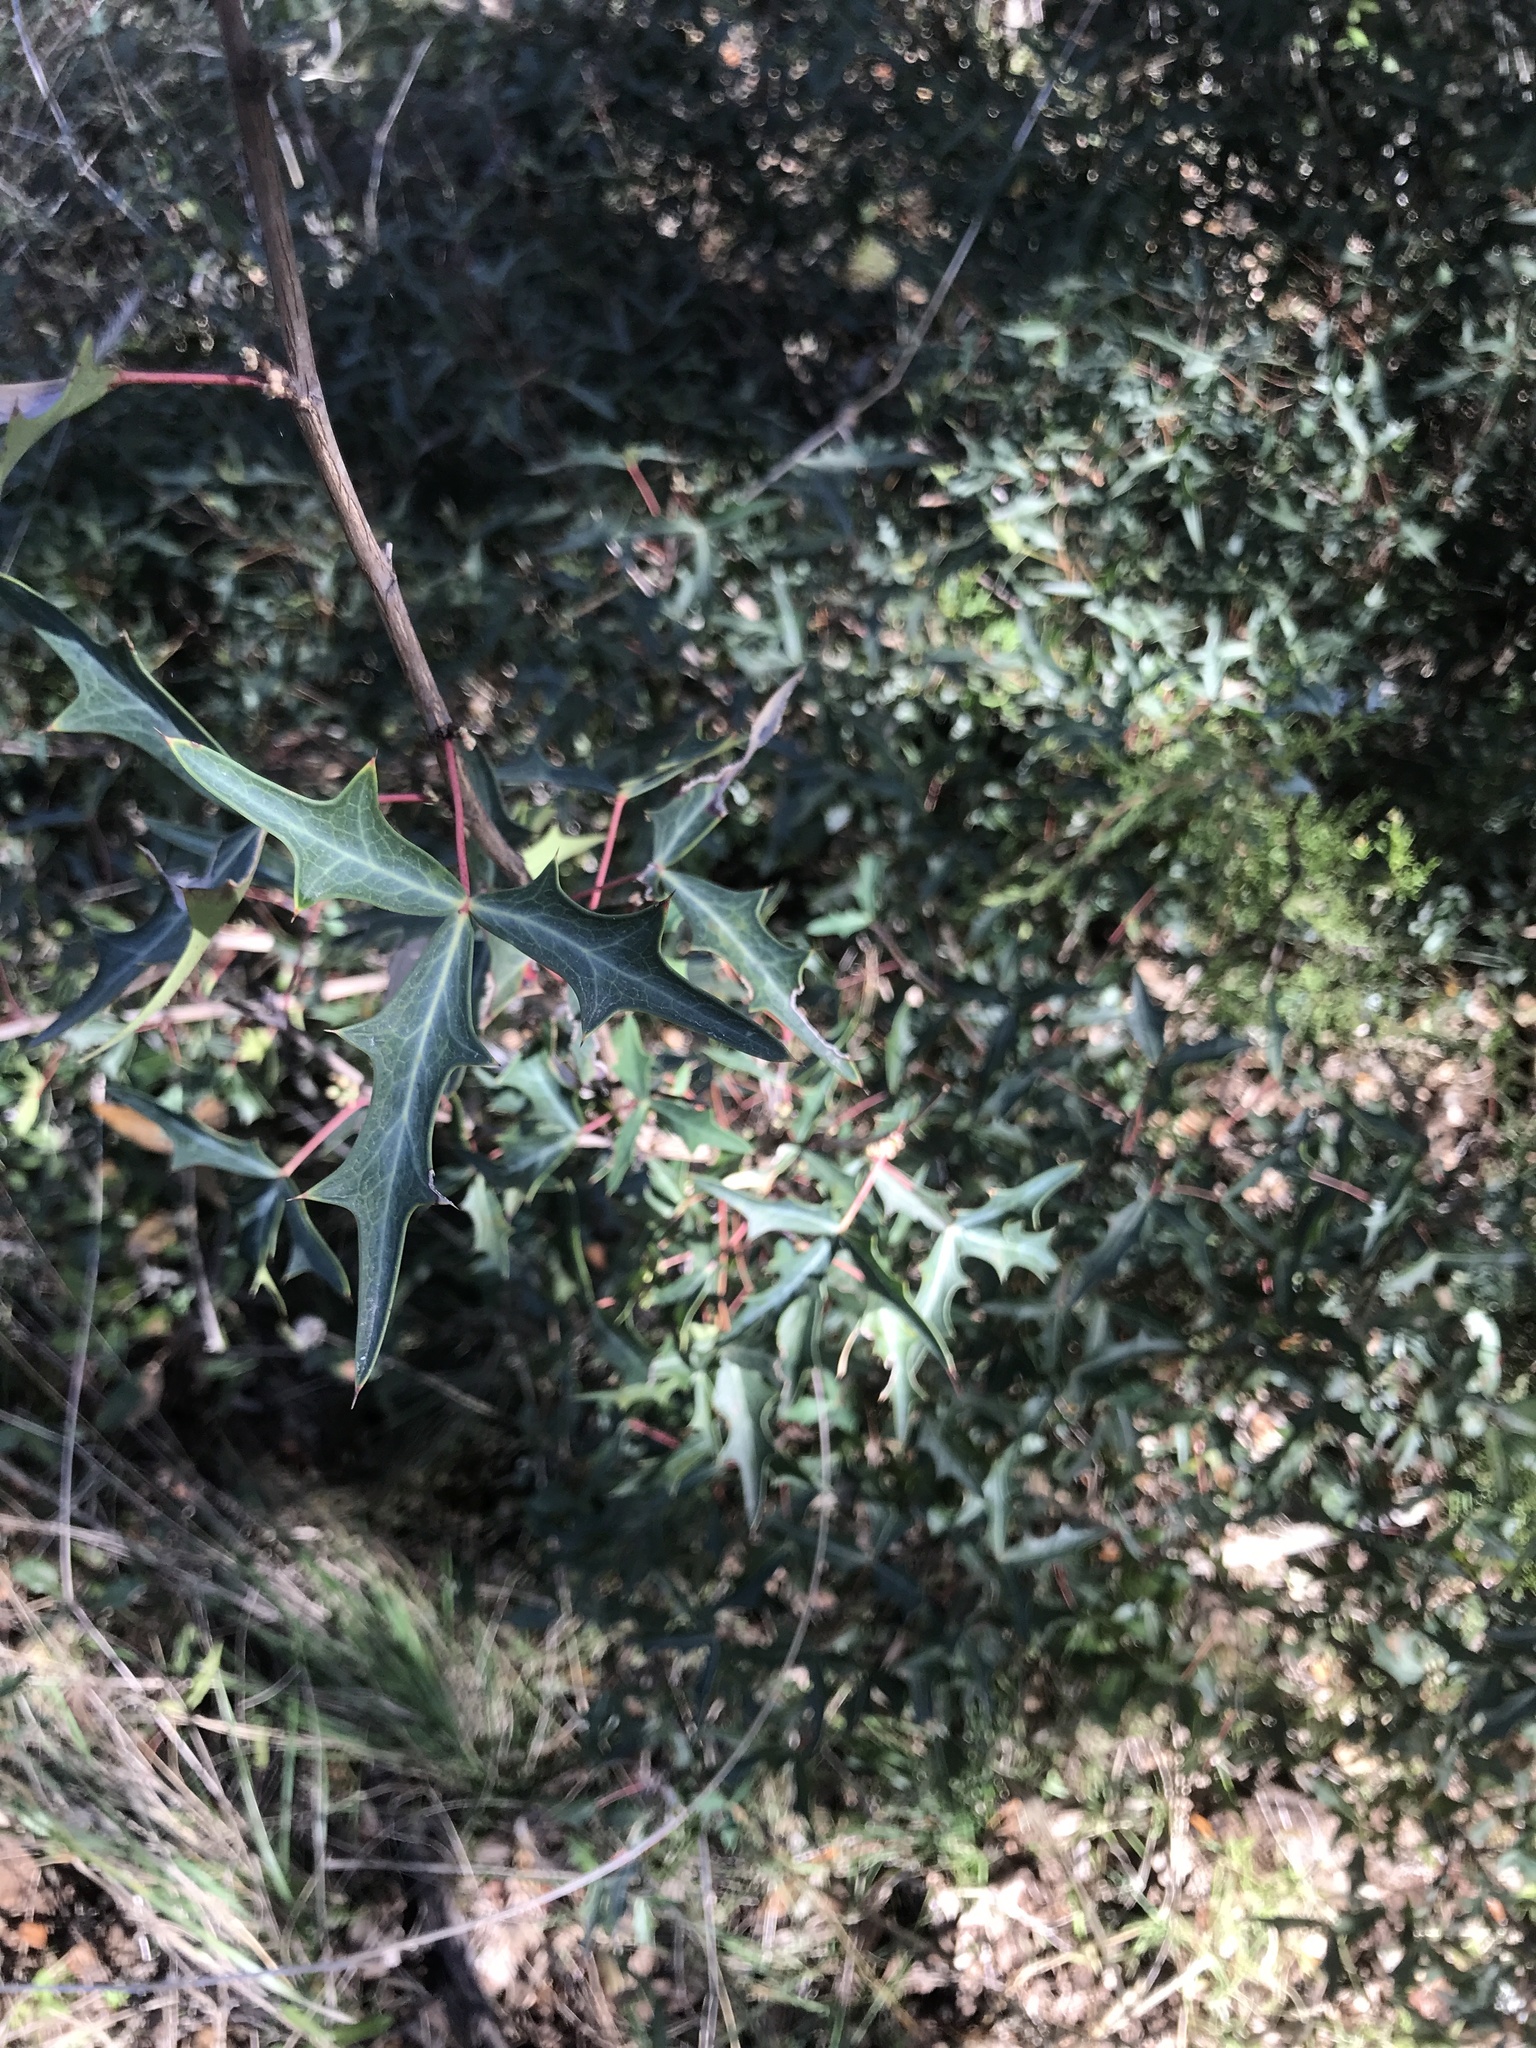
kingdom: Plantae
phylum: Tracheophyta
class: Magnoliopsida
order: Ranunculales
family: Berberidaceae
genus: Alloberberis
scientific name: Alloberberis trifoliolata
